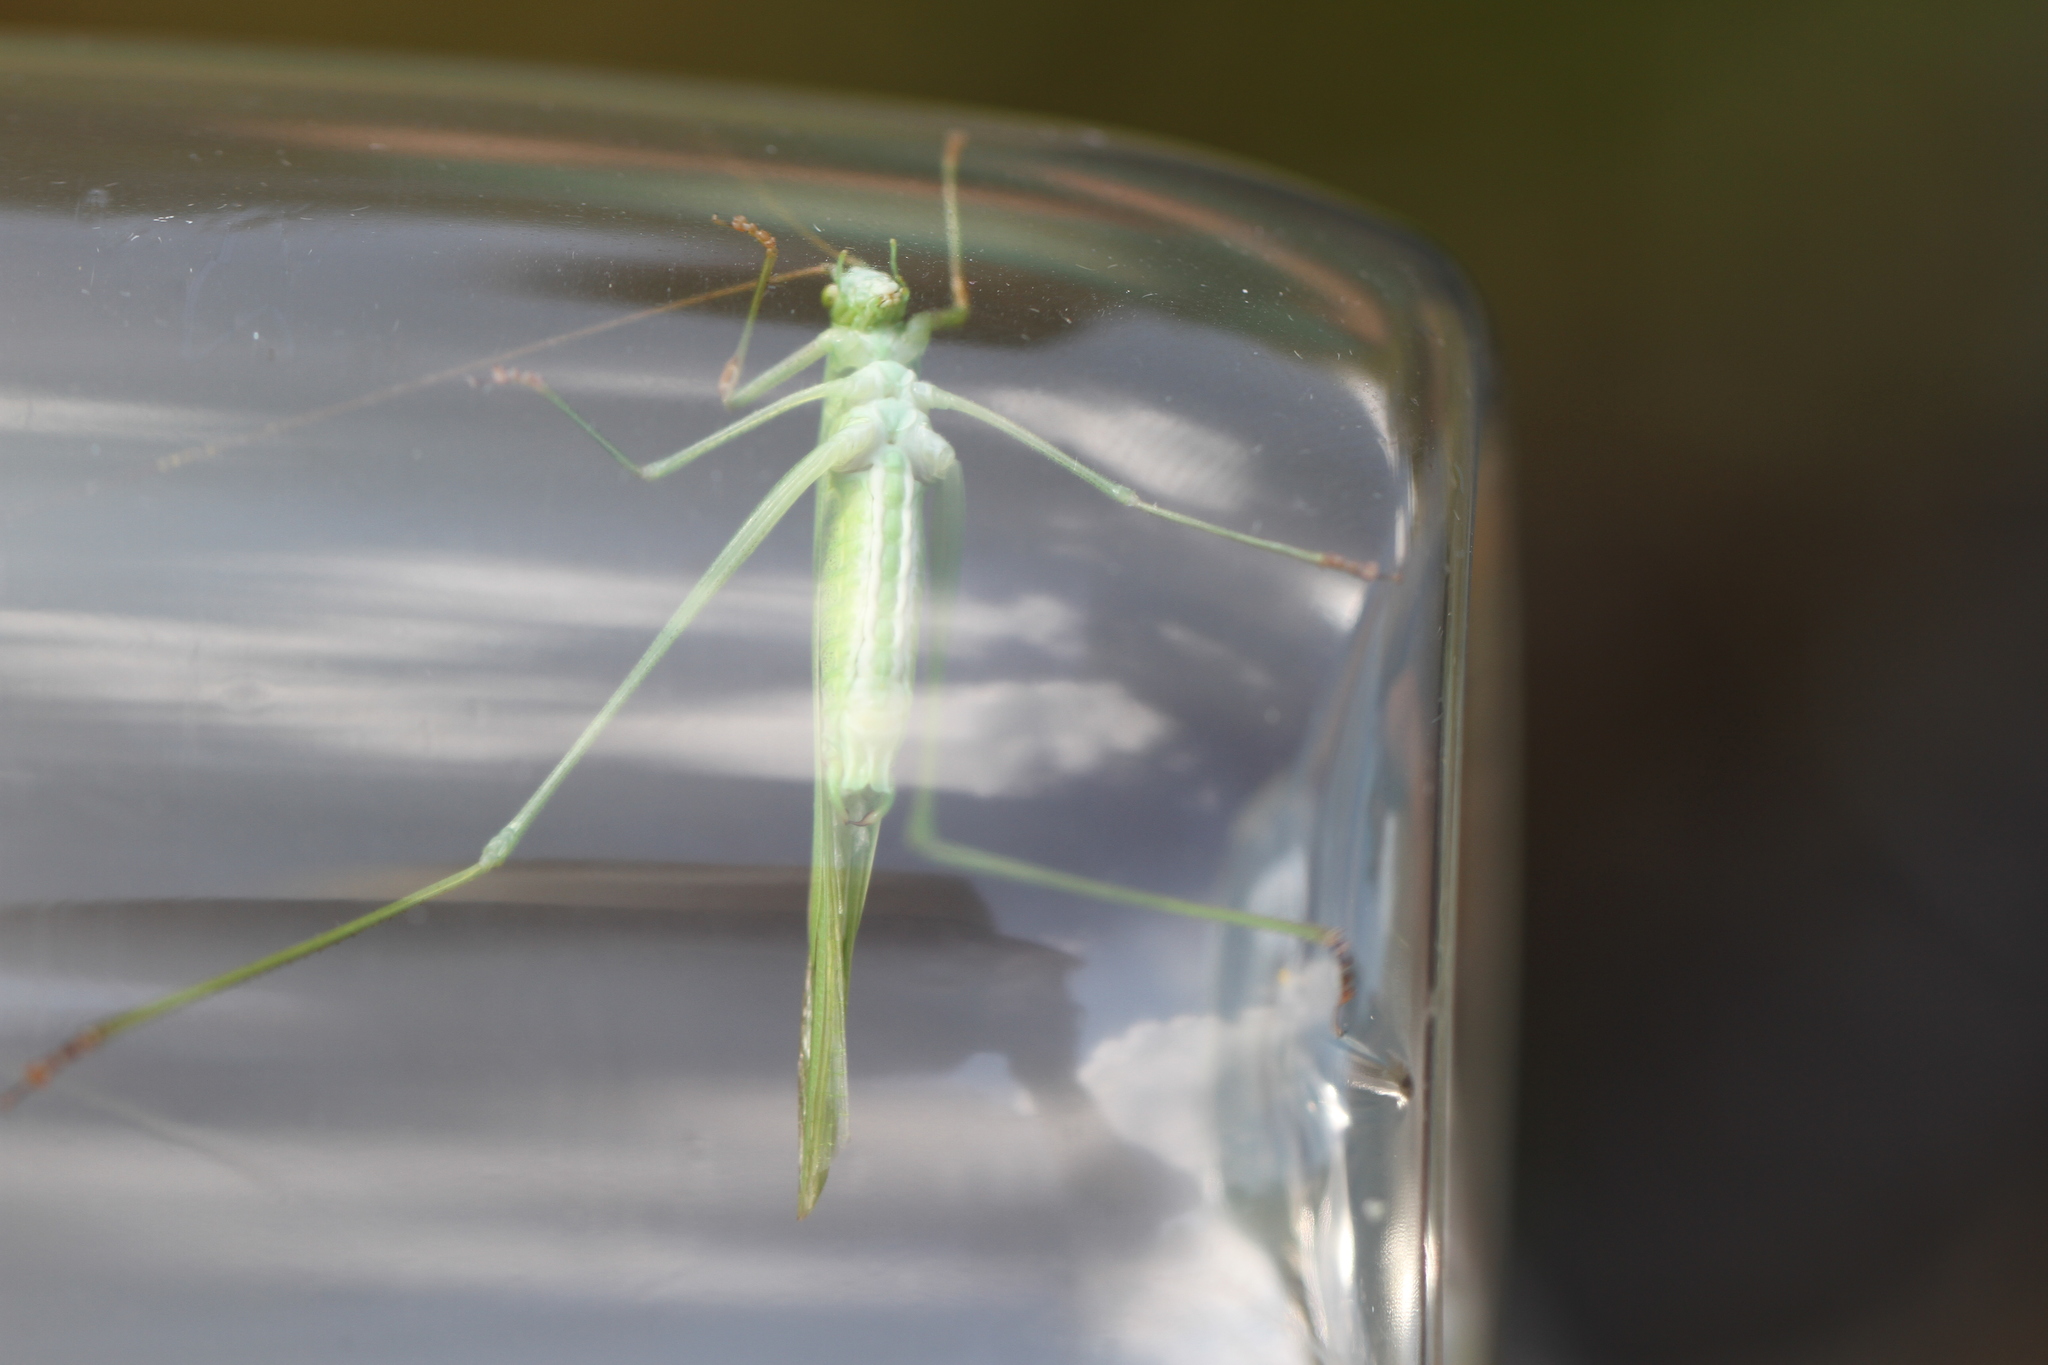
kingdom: Animalia
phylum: Arthropoda
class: Insecta
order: Orthoptera
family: Tettigoniidae
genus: Phaneroptera
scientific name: Phaneroptera falcata
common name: Sickle-bearing bush-cricket
